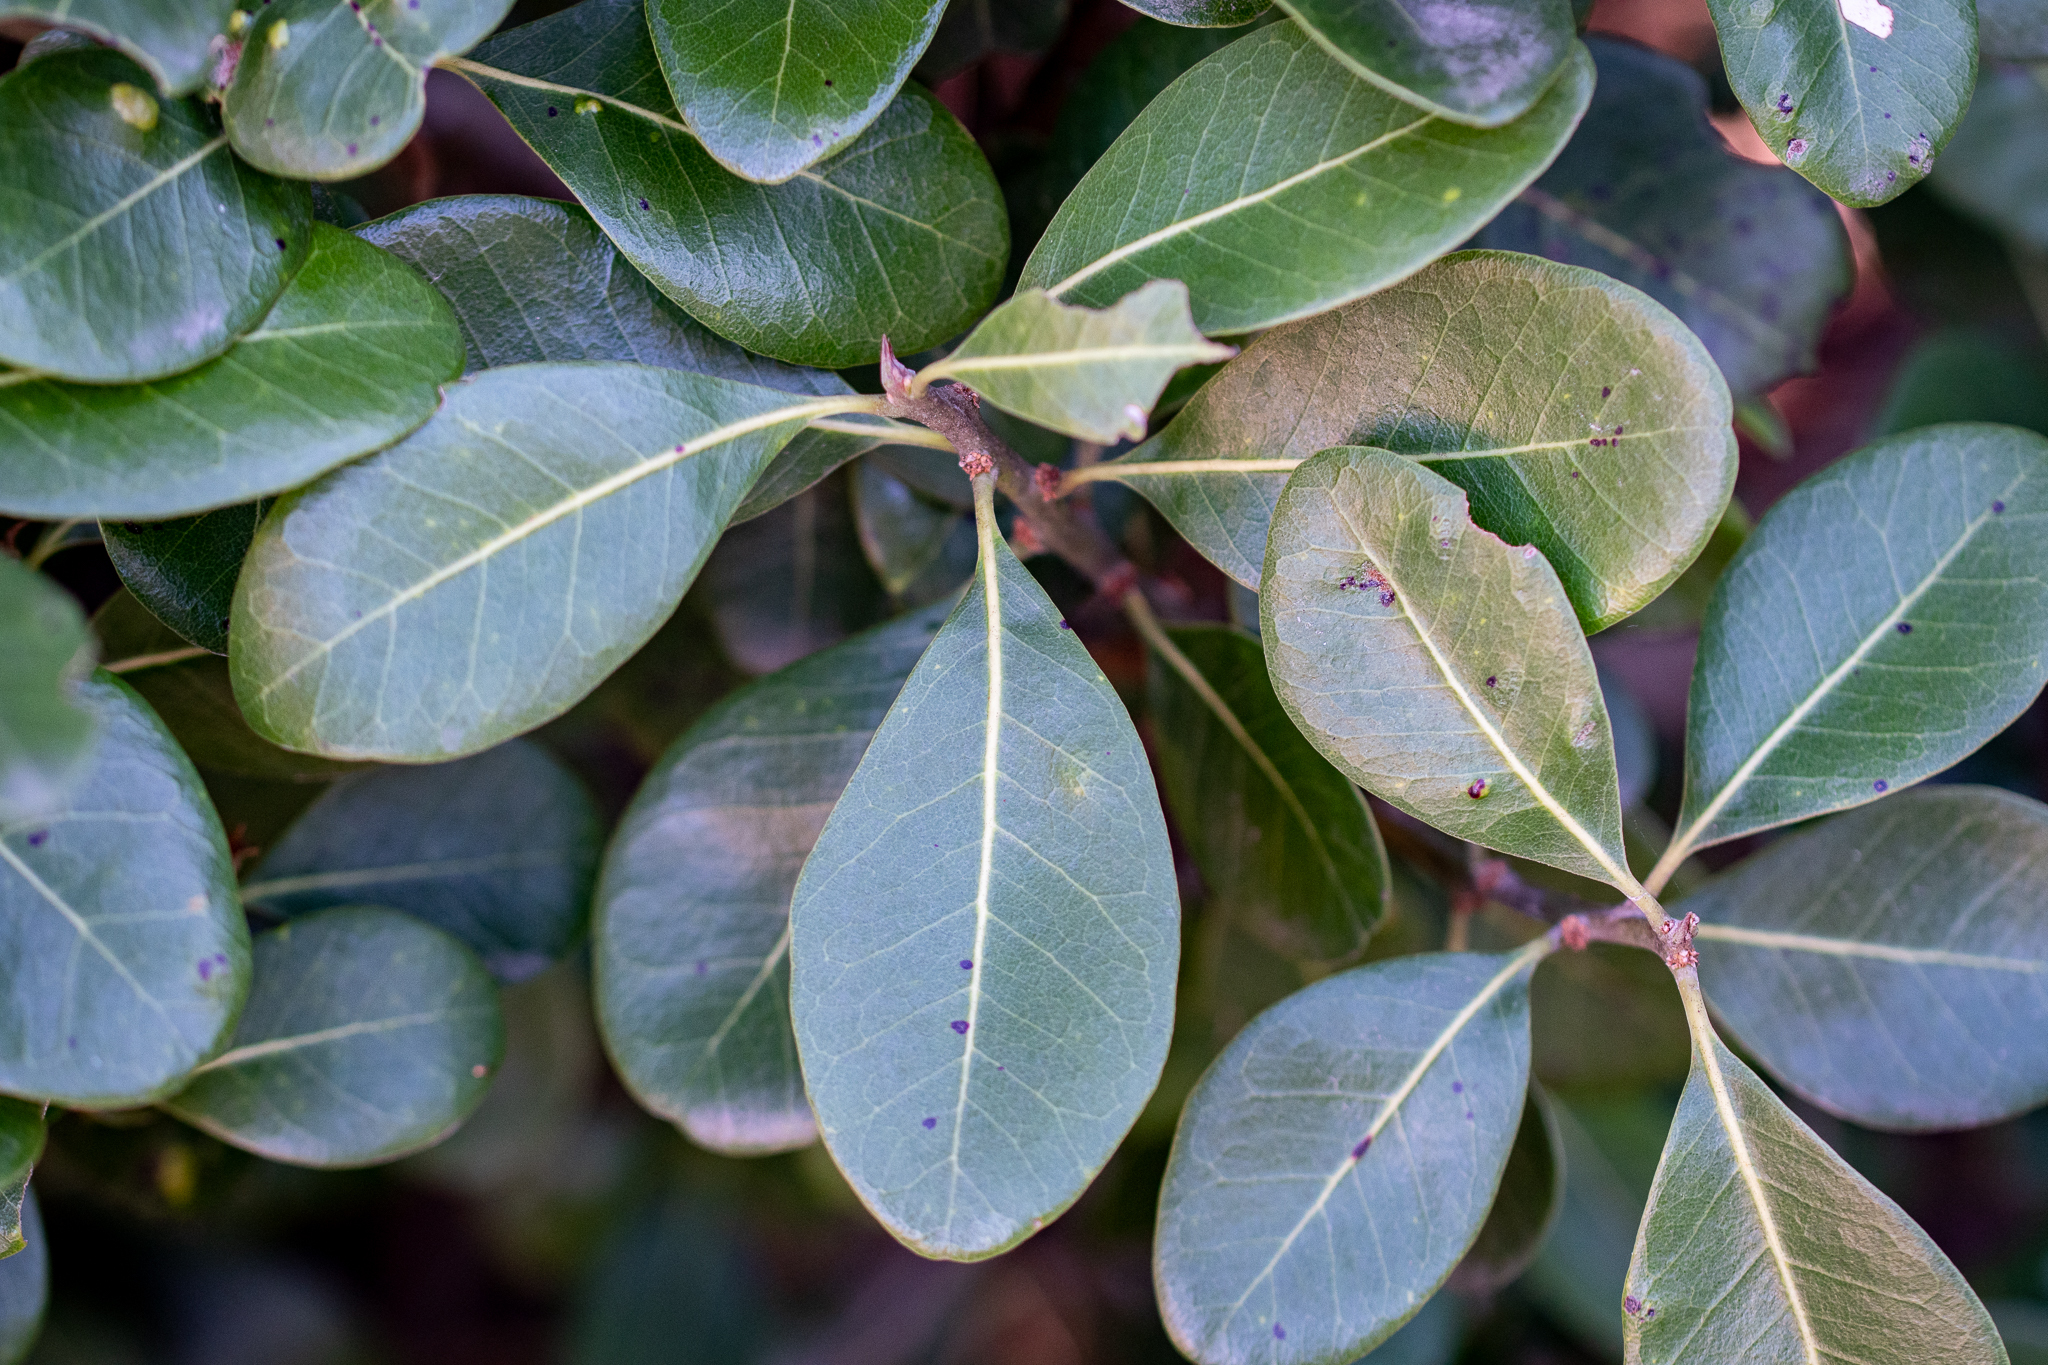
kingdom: Plantae
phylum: Tracheophyta
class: Magnoliopsida
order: Ericales
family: Sapotaceae
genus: Sideroxylon
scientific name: Sideroxylon inerme
